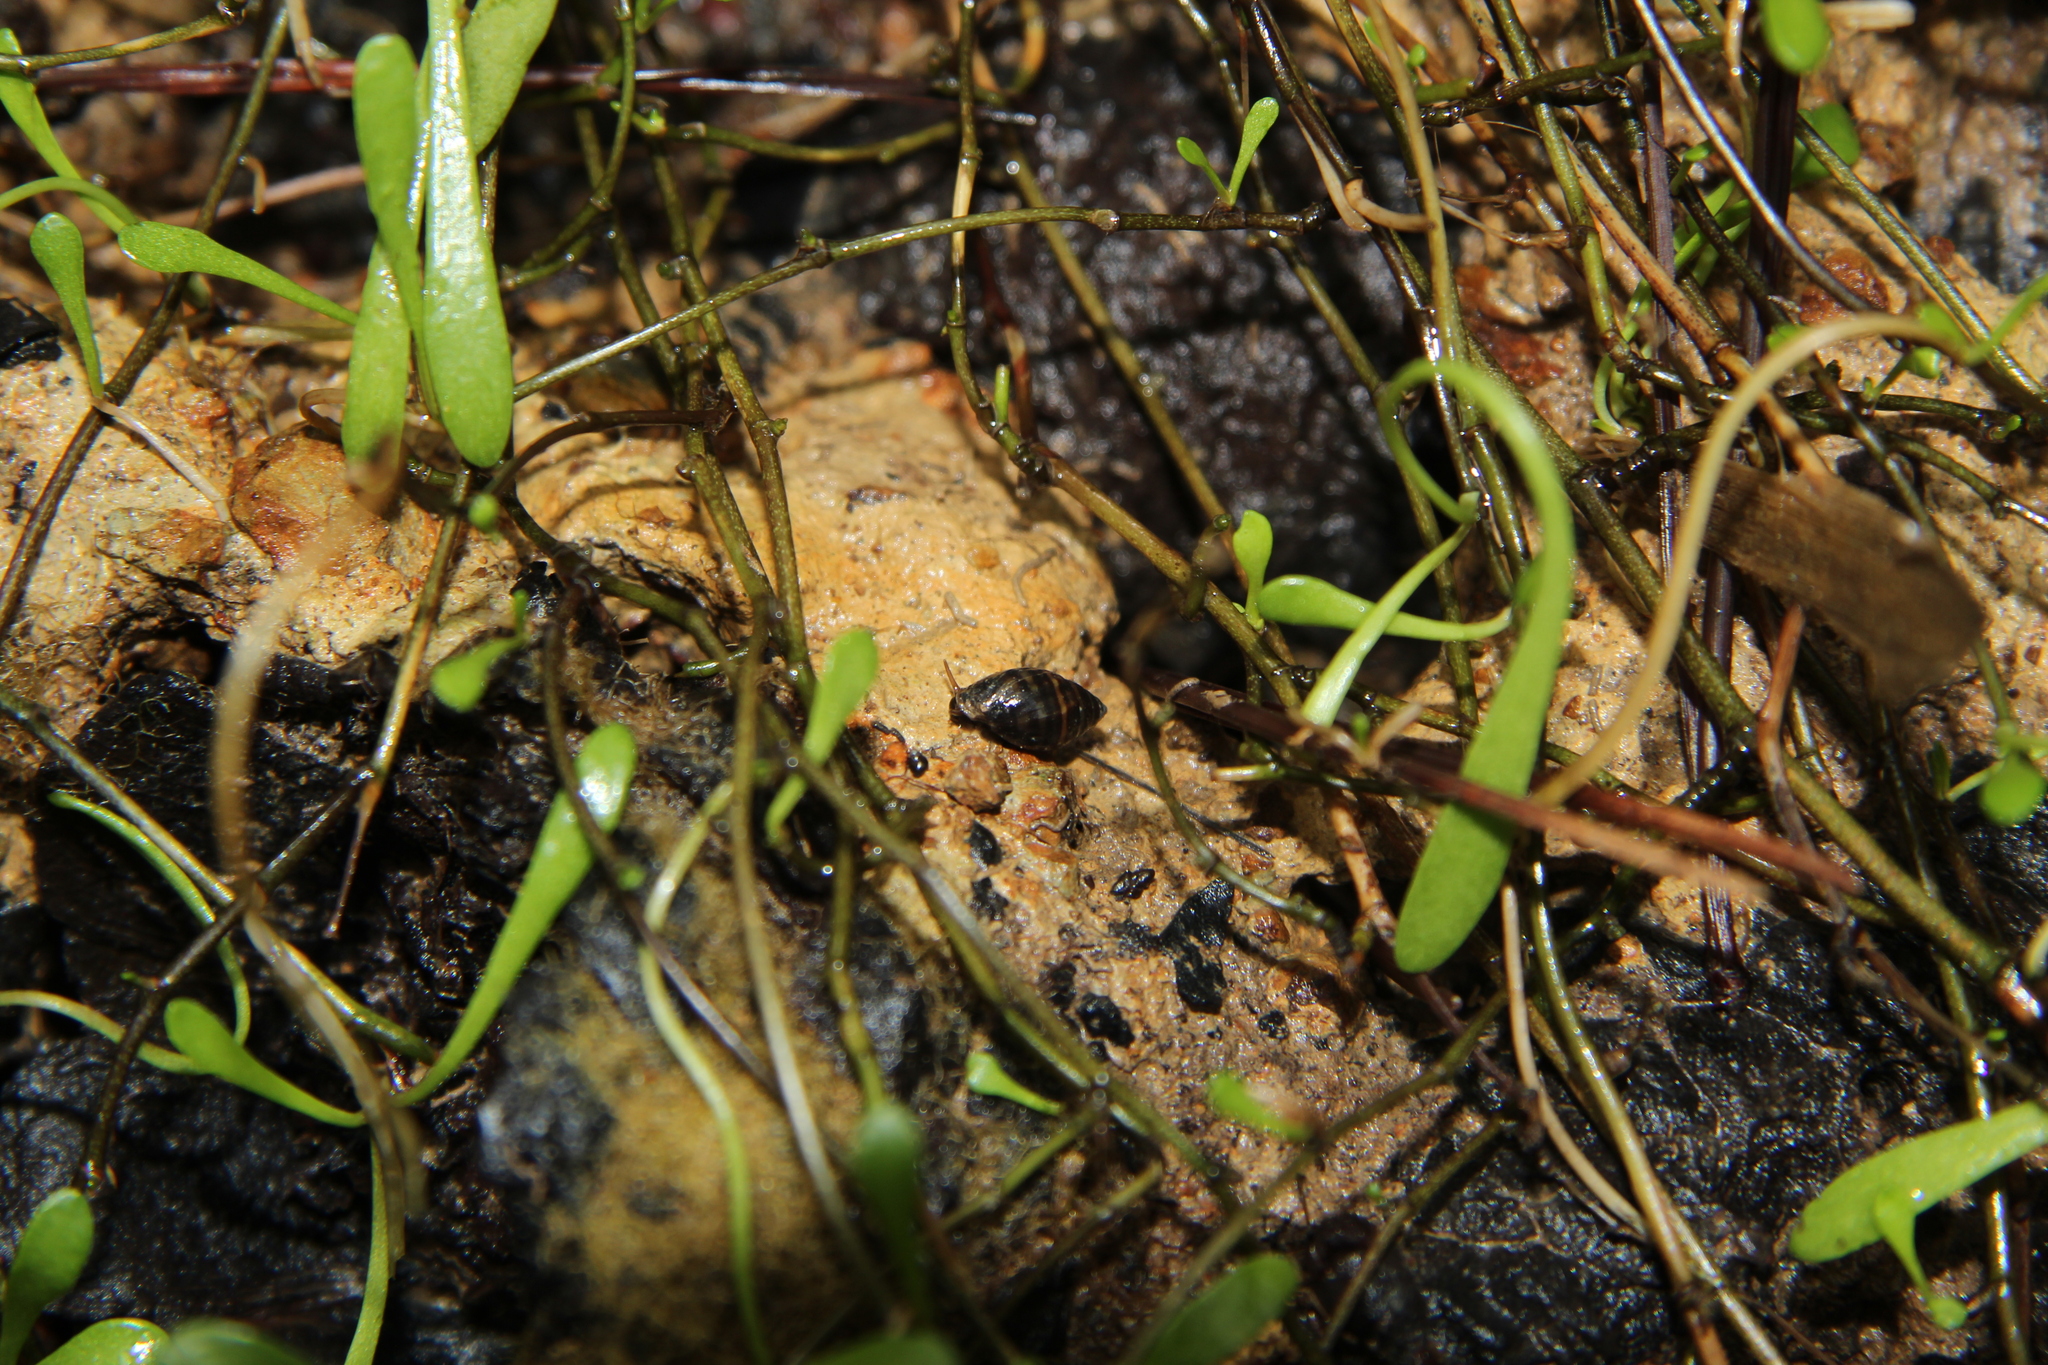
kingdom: Animalia
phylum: Mollusca
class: Gastropoda
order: Ellobiida
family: Ellobiidae
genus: Pleuroloba
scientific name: Pleuroloba costellaris
